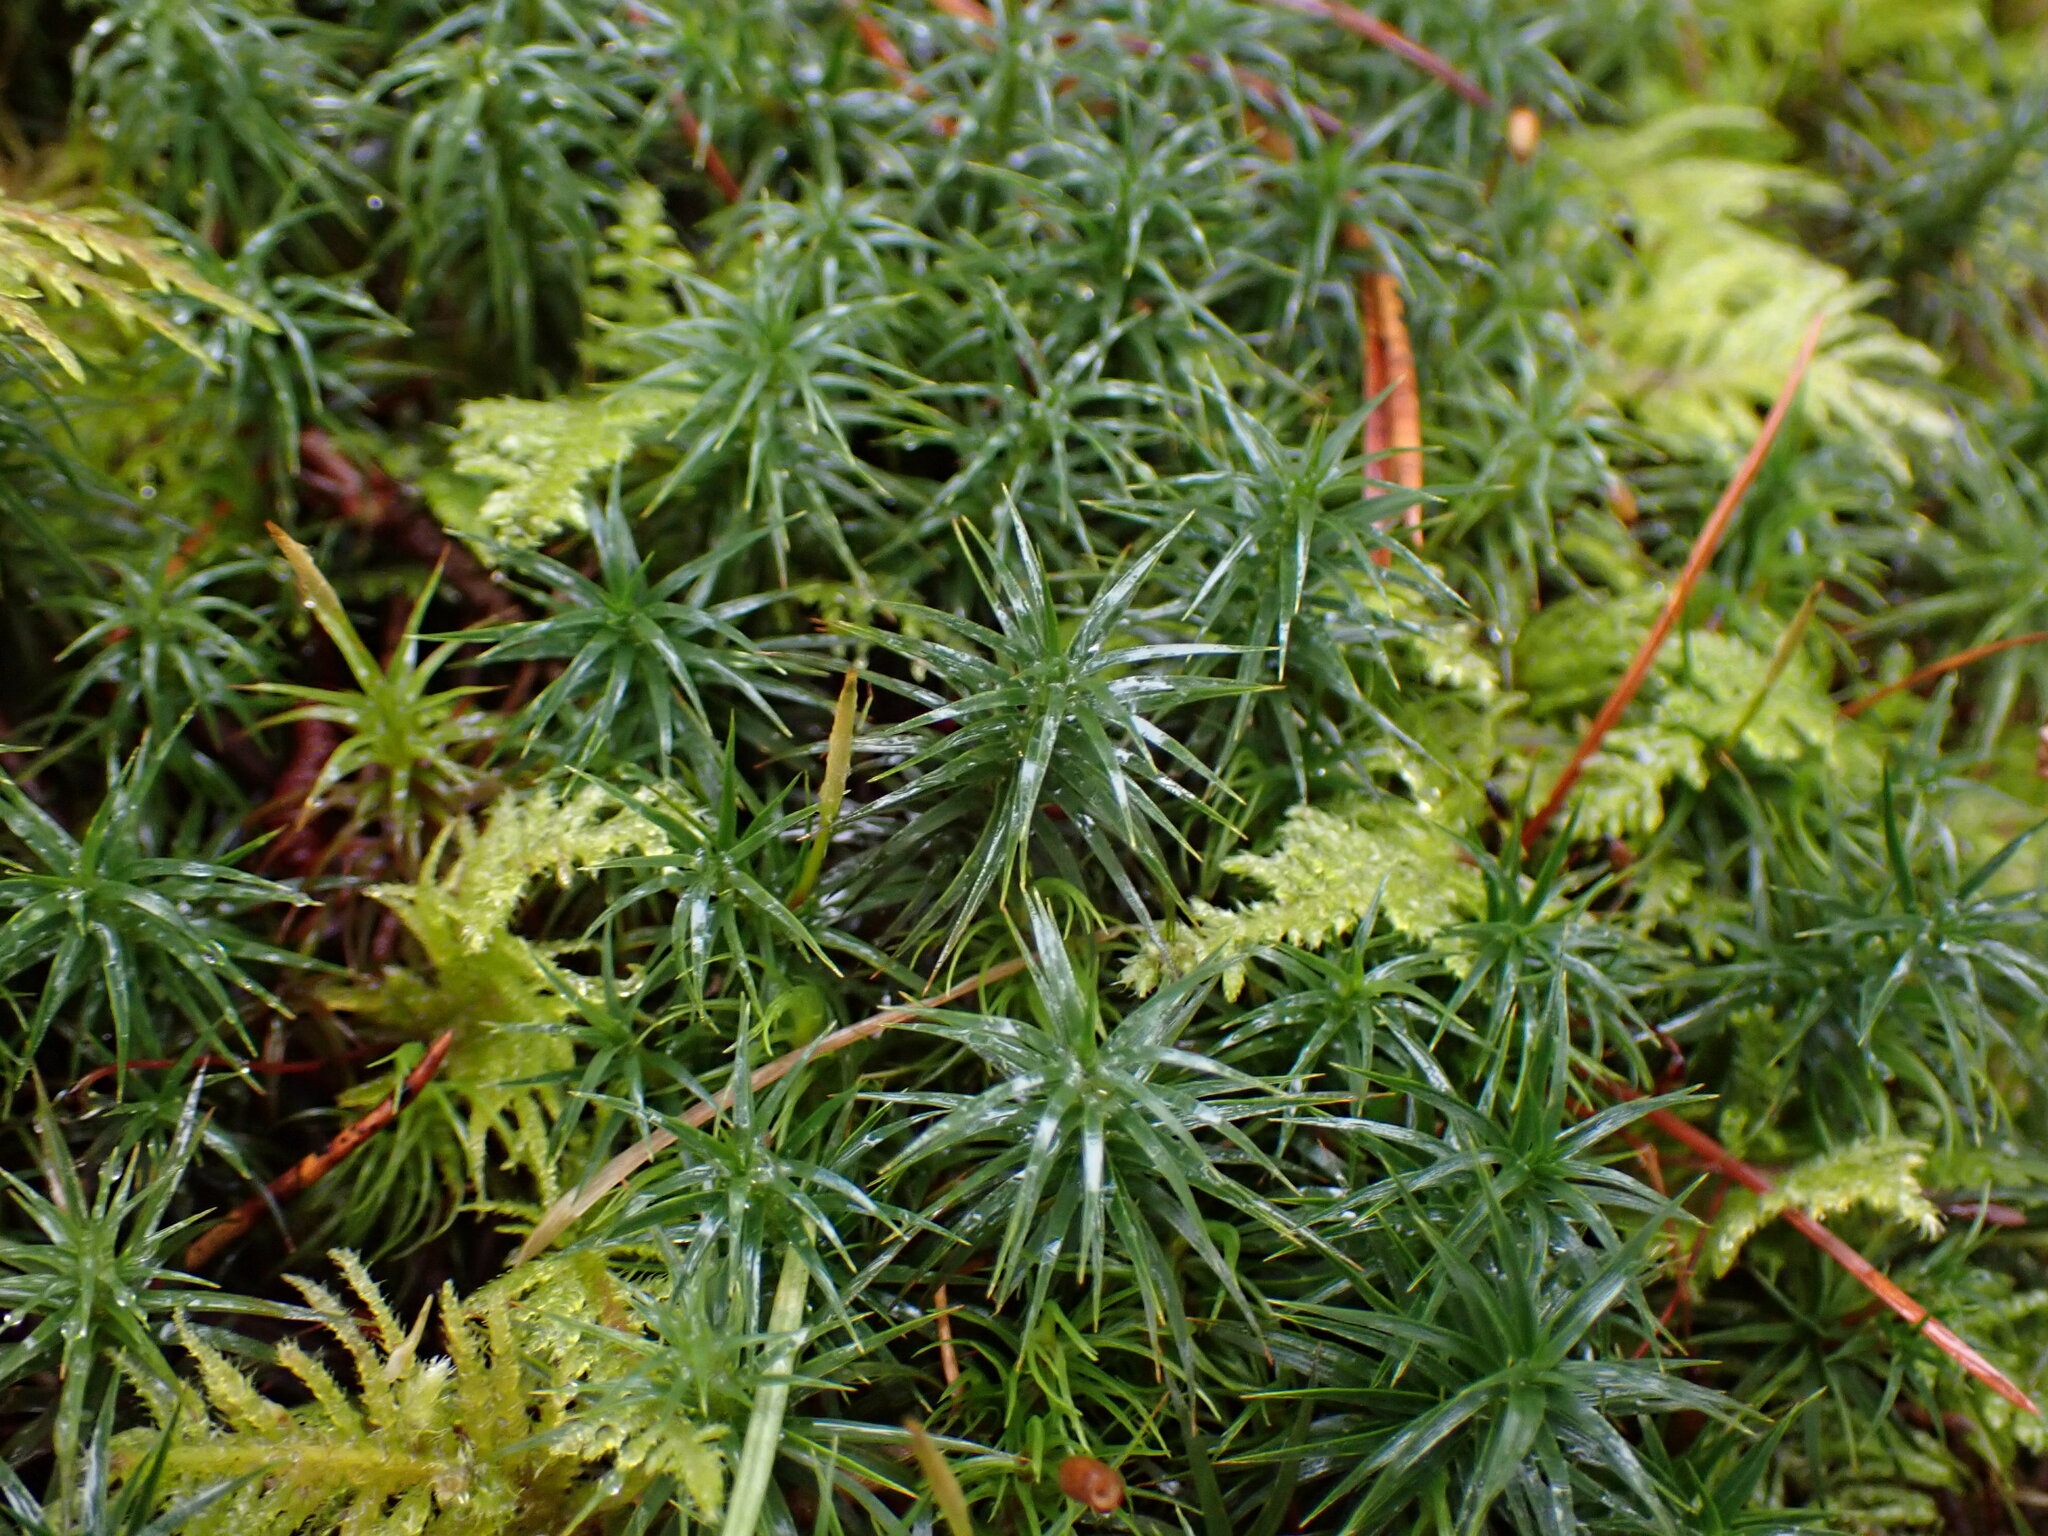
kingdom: Plantae
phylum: Bryophyta
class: Polytrichopsida
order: Polytrichales
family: Polytrichaceae
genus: Polytrichastrum
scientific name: Polytrichastrum alpinum
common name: Alpine haircap
